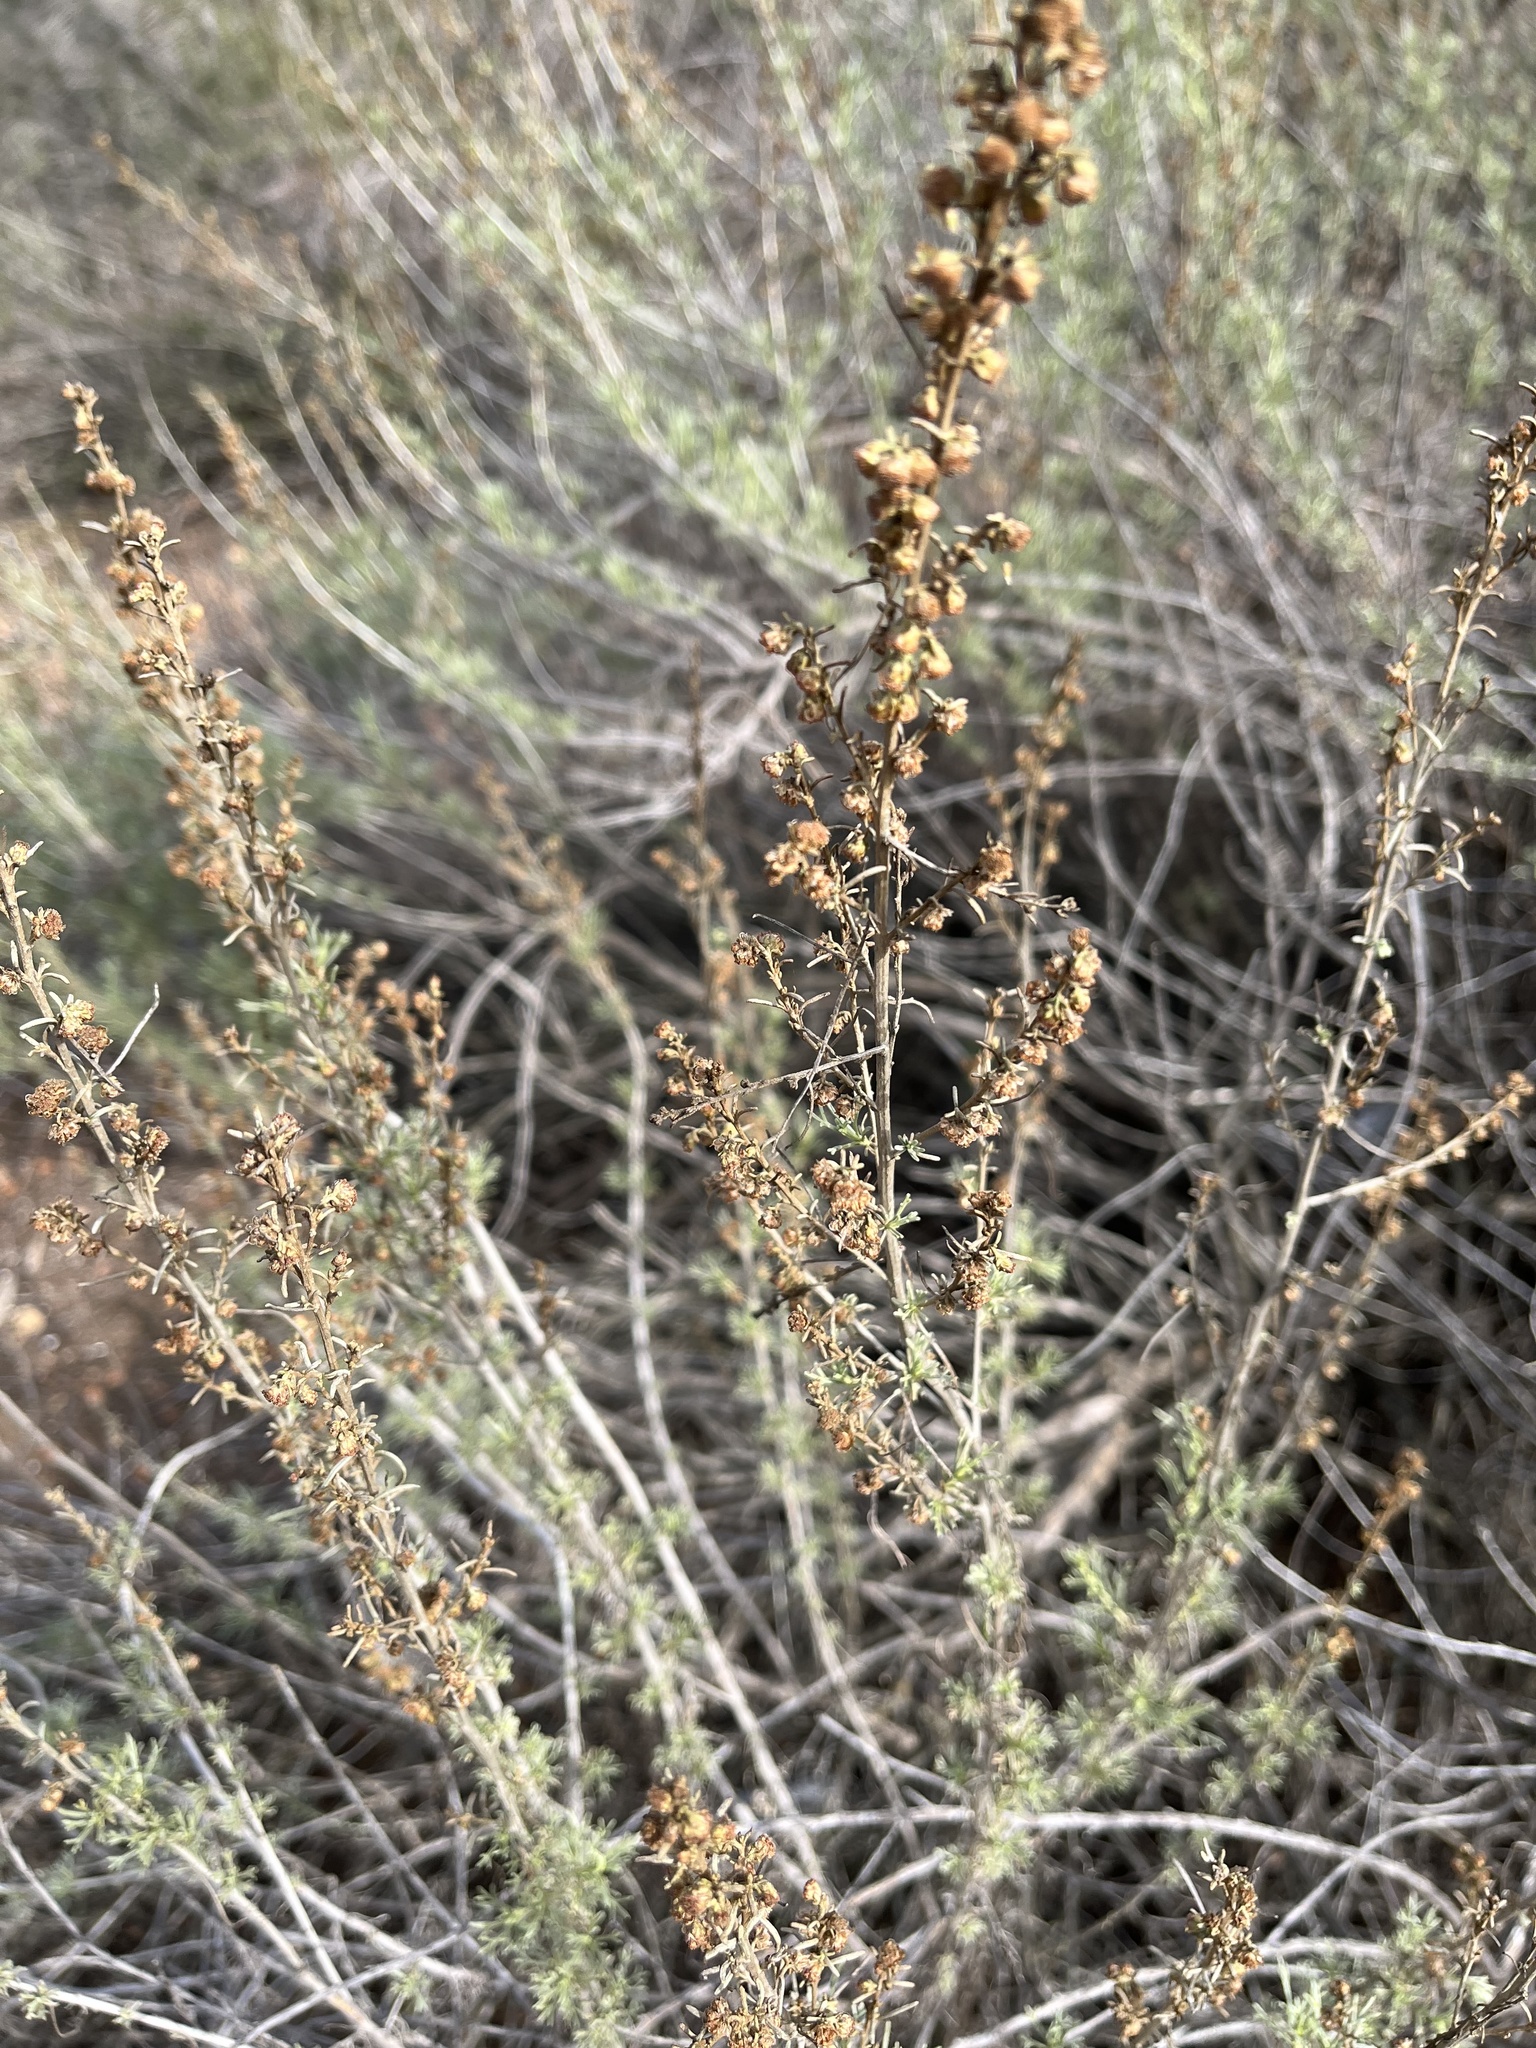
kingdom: Plantae
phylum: Tracheophyta
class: Magnoliopsida
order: Asterales
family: Asteraceae
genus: Artemisia
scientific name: Artemisia californica
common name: California sagebrush
